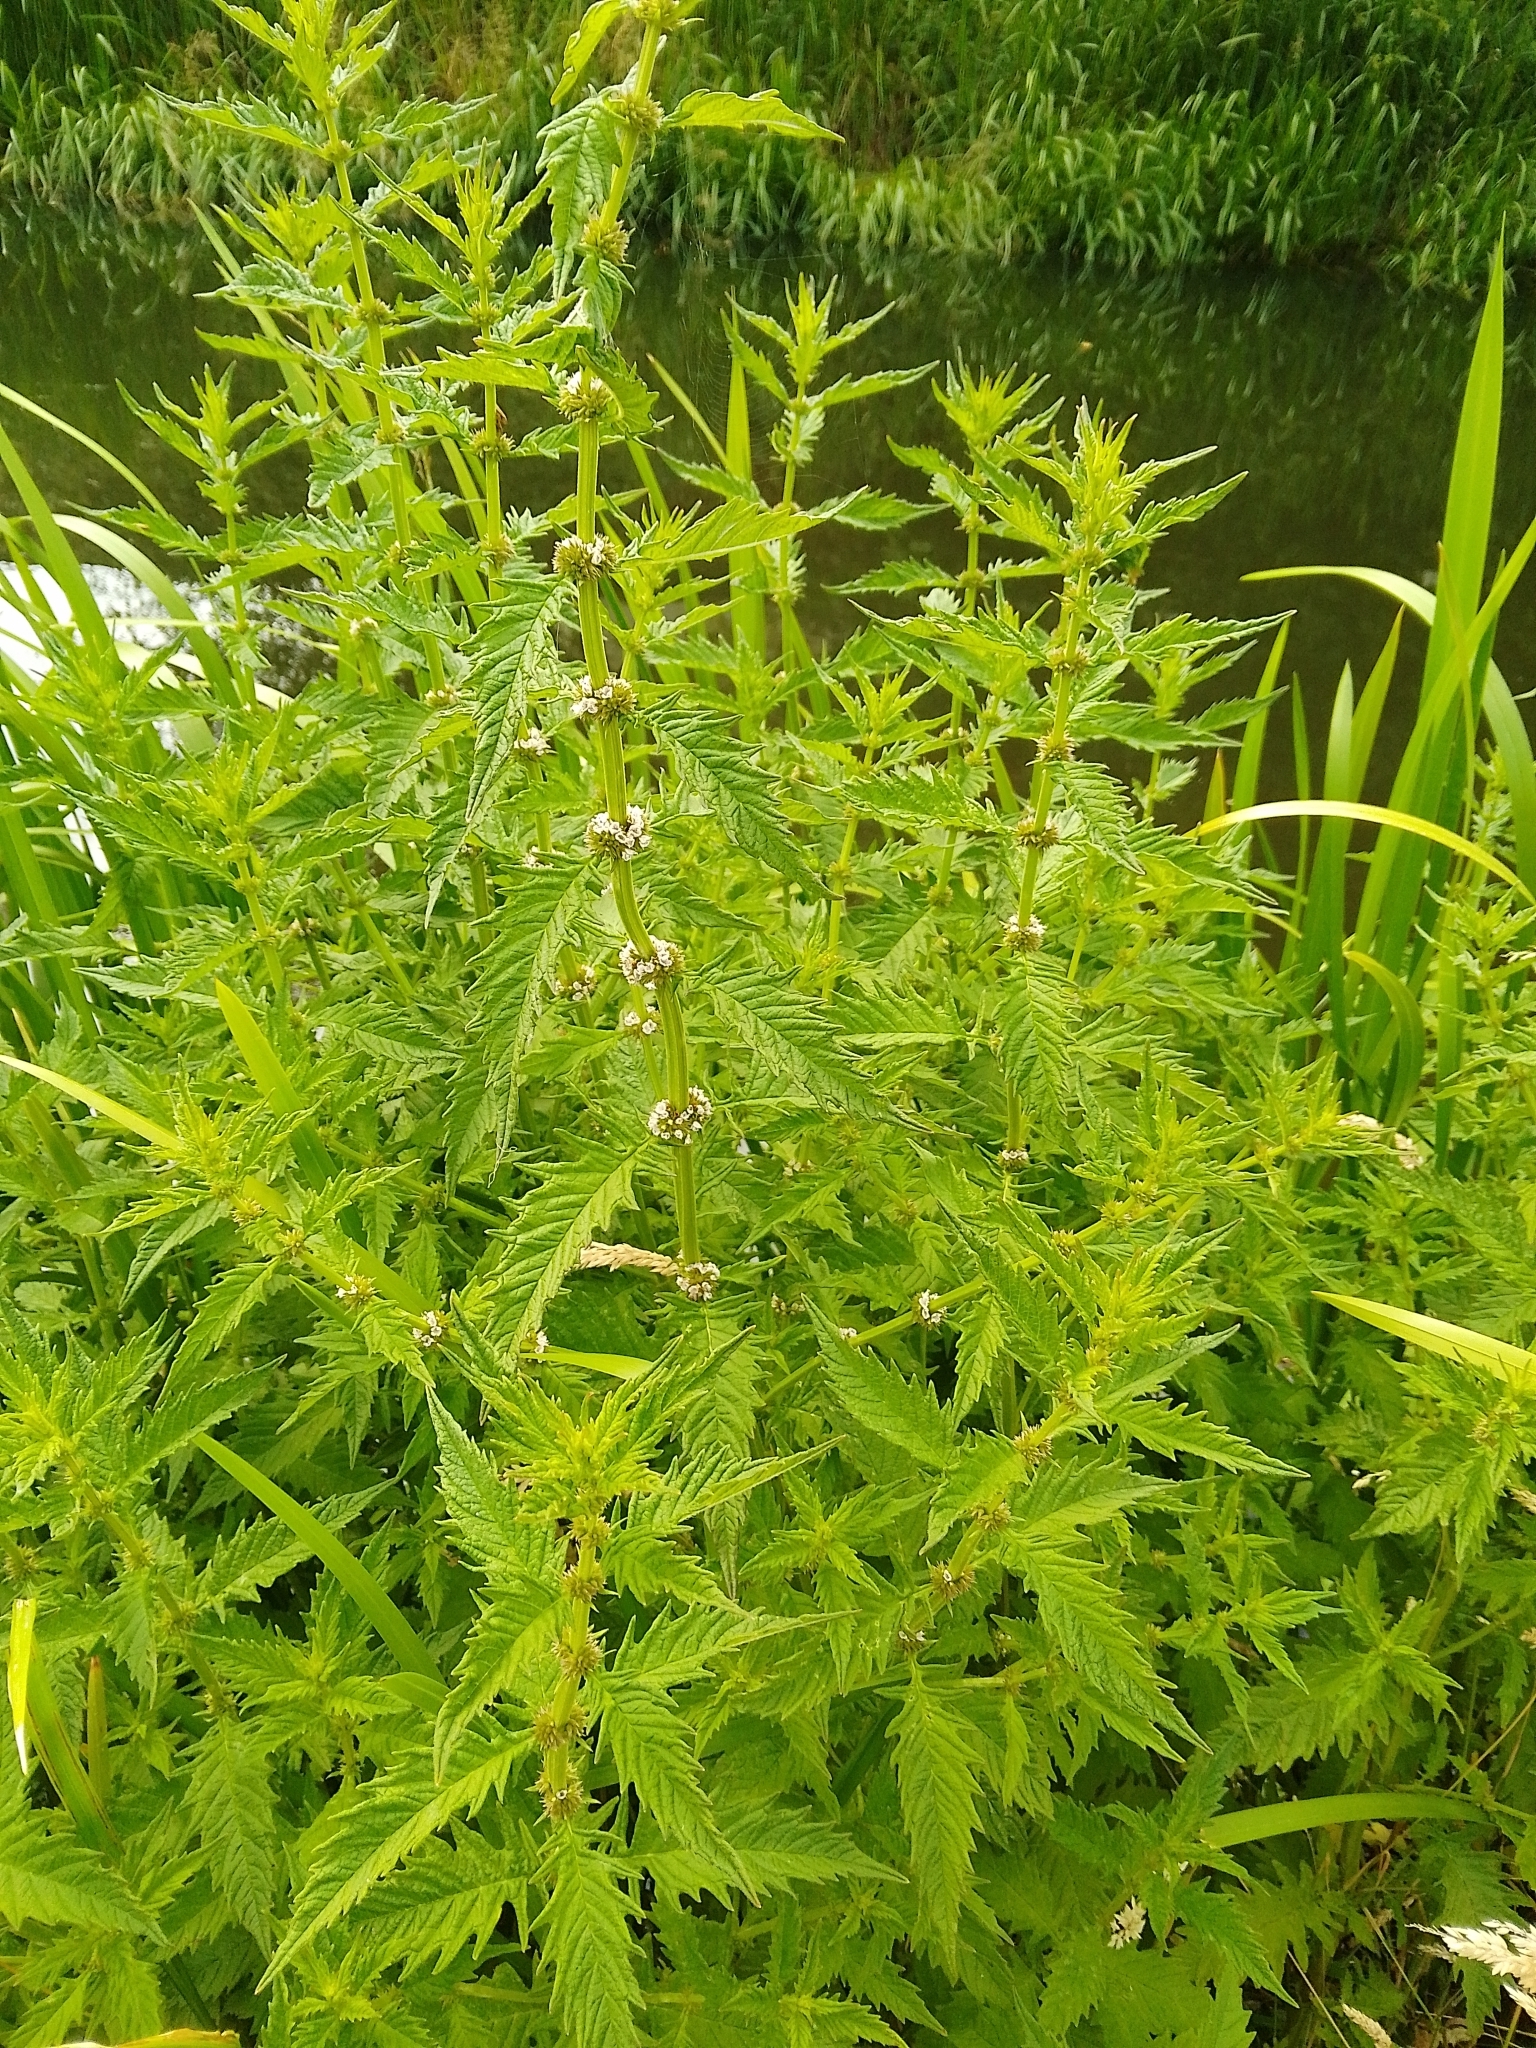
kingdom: Plantae
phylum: Tracheophyta
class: Magnoliopsida
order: Lamiales
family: Lamiaceae
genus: Lycopus
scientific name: Lycopus europaeus
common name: European bugleweed
